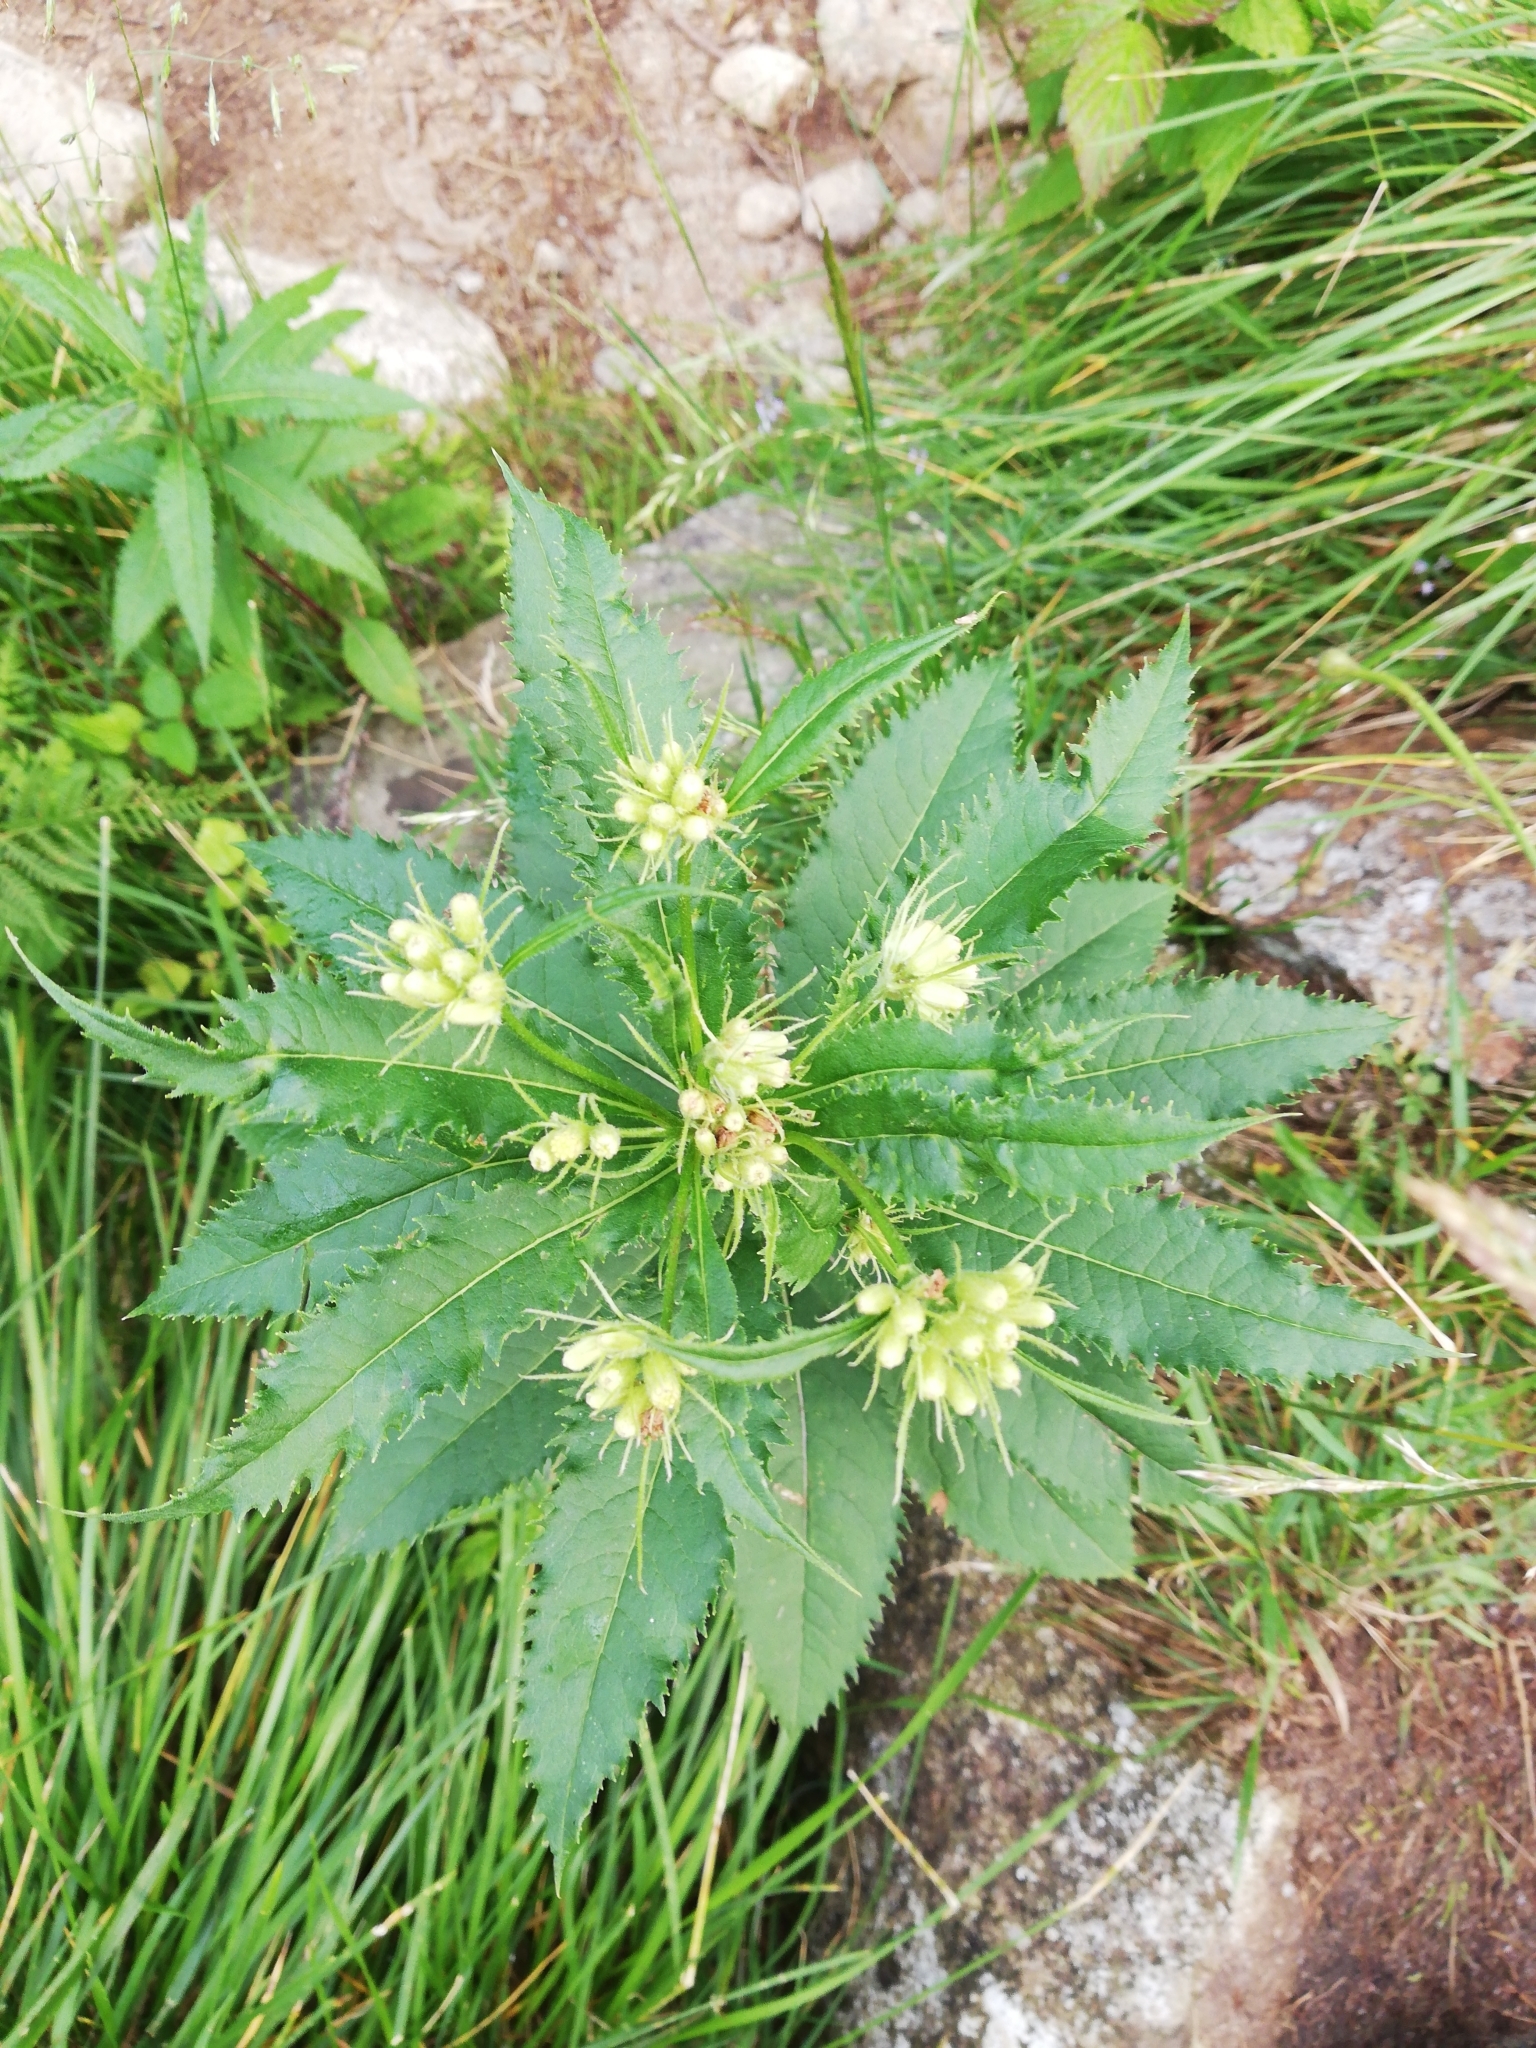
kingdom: Plantae
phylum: Tracheophyta
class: Magnoliopsida
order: Asterales
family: Asteraceae
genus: Senecio
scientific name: Senecio cacaliaster
